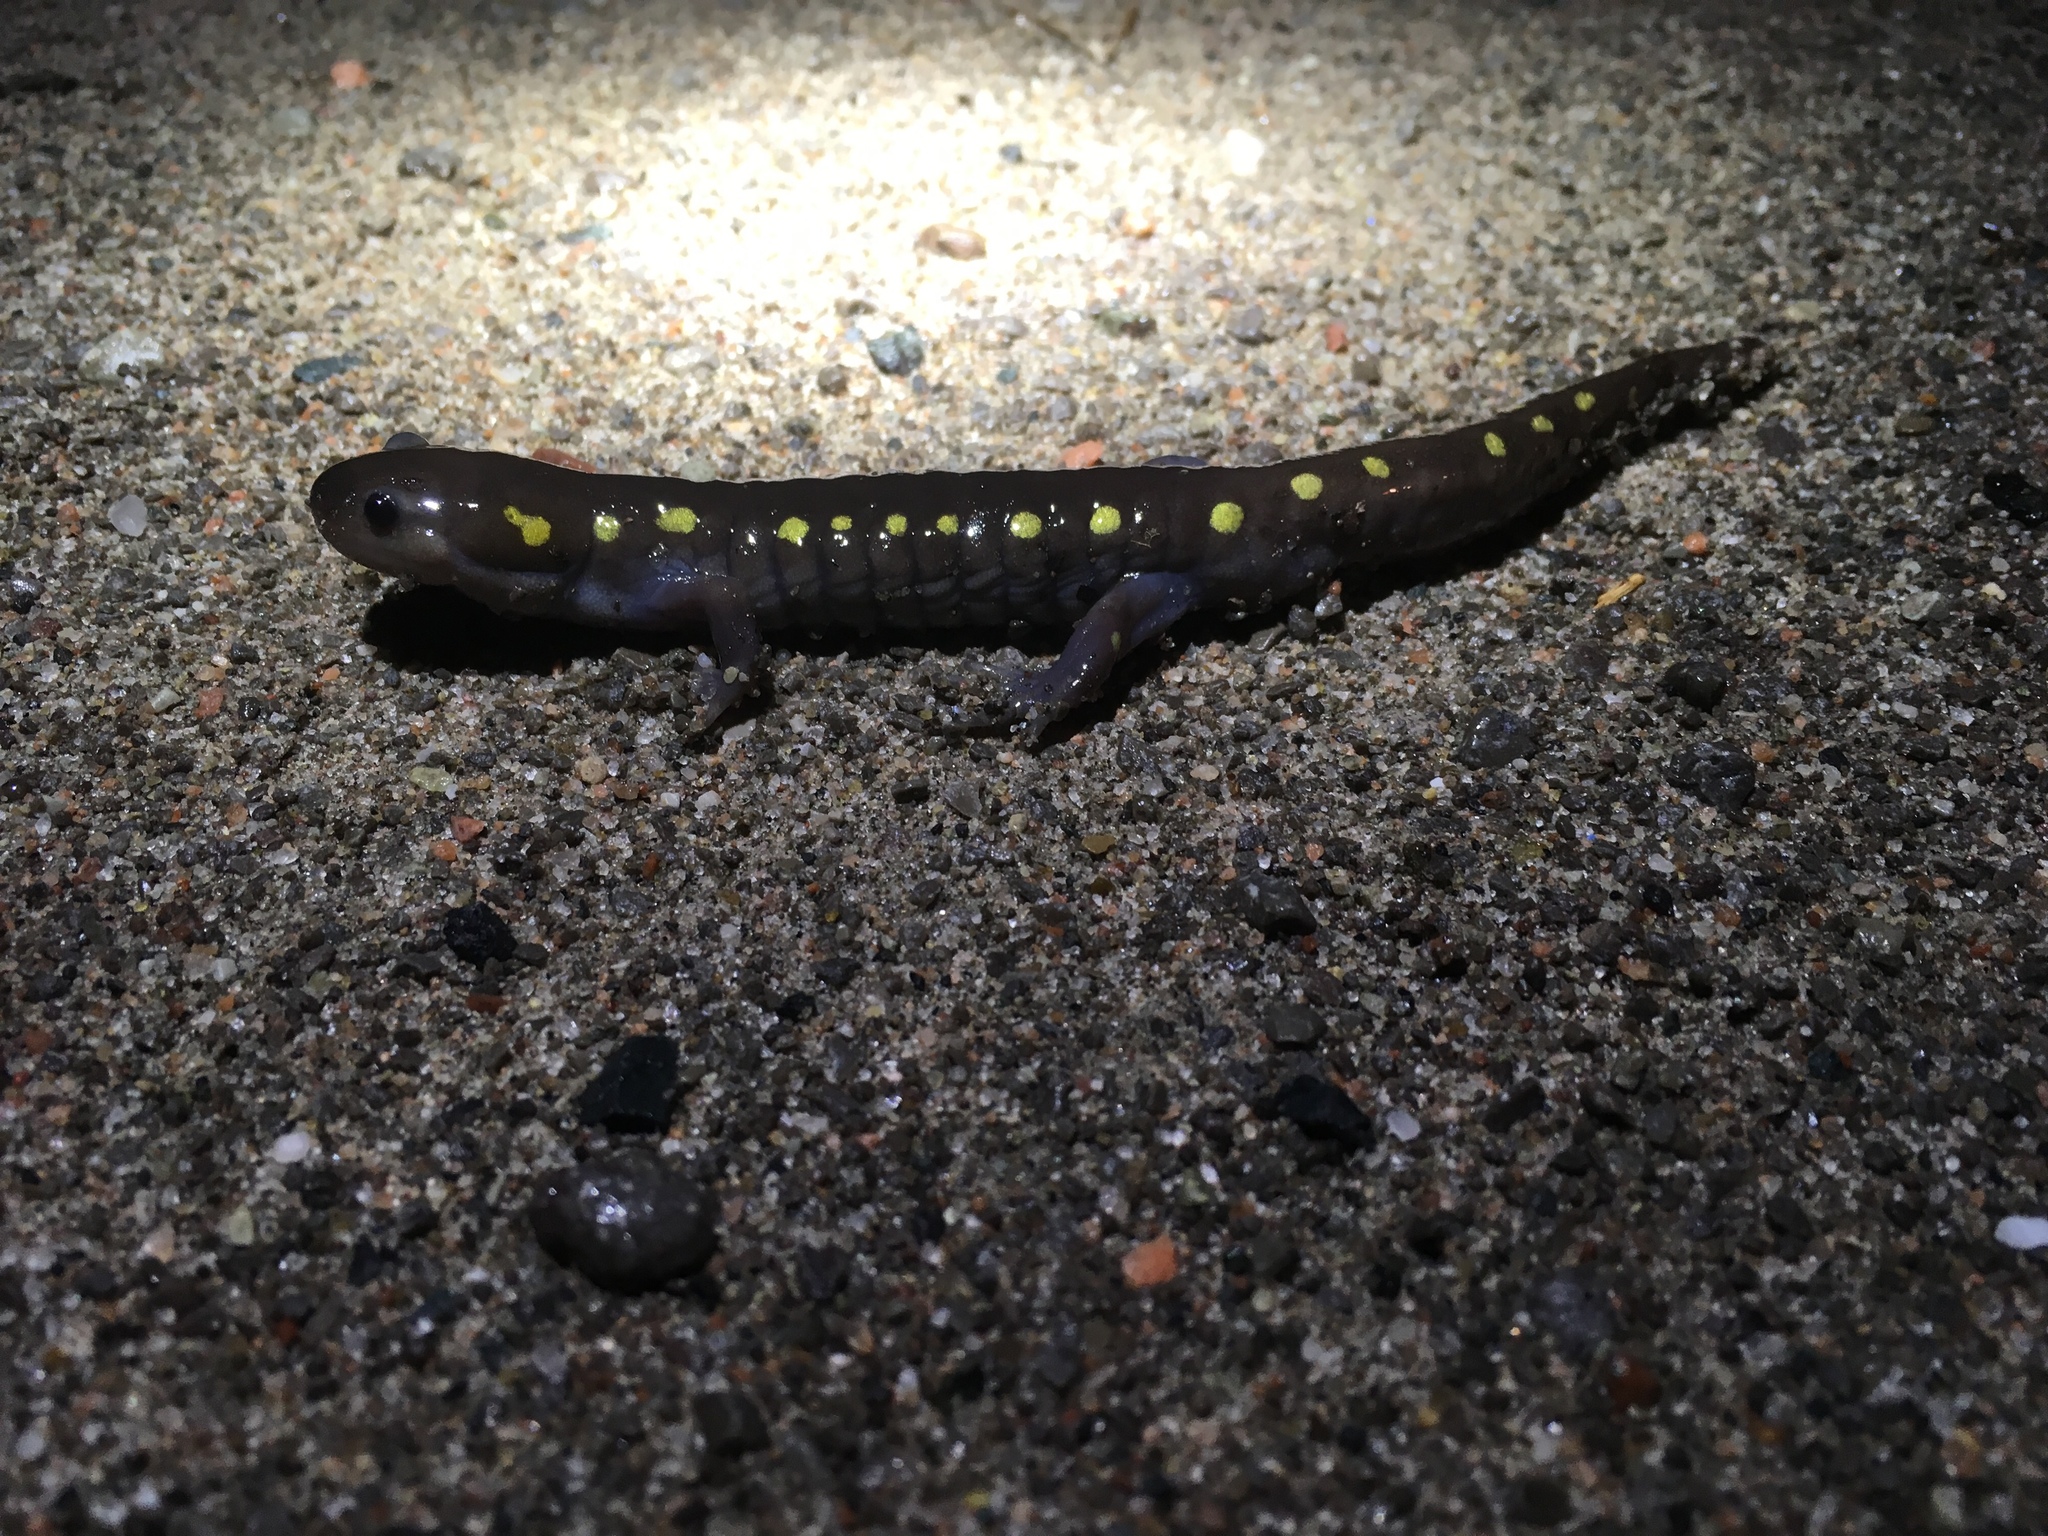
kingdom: Animalia
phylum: Chordata
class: Amphibia
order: Caudata
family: Ambystomatidae
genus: Ambystoma
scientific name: Ambystoma maculatum
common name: Spotted salamander
